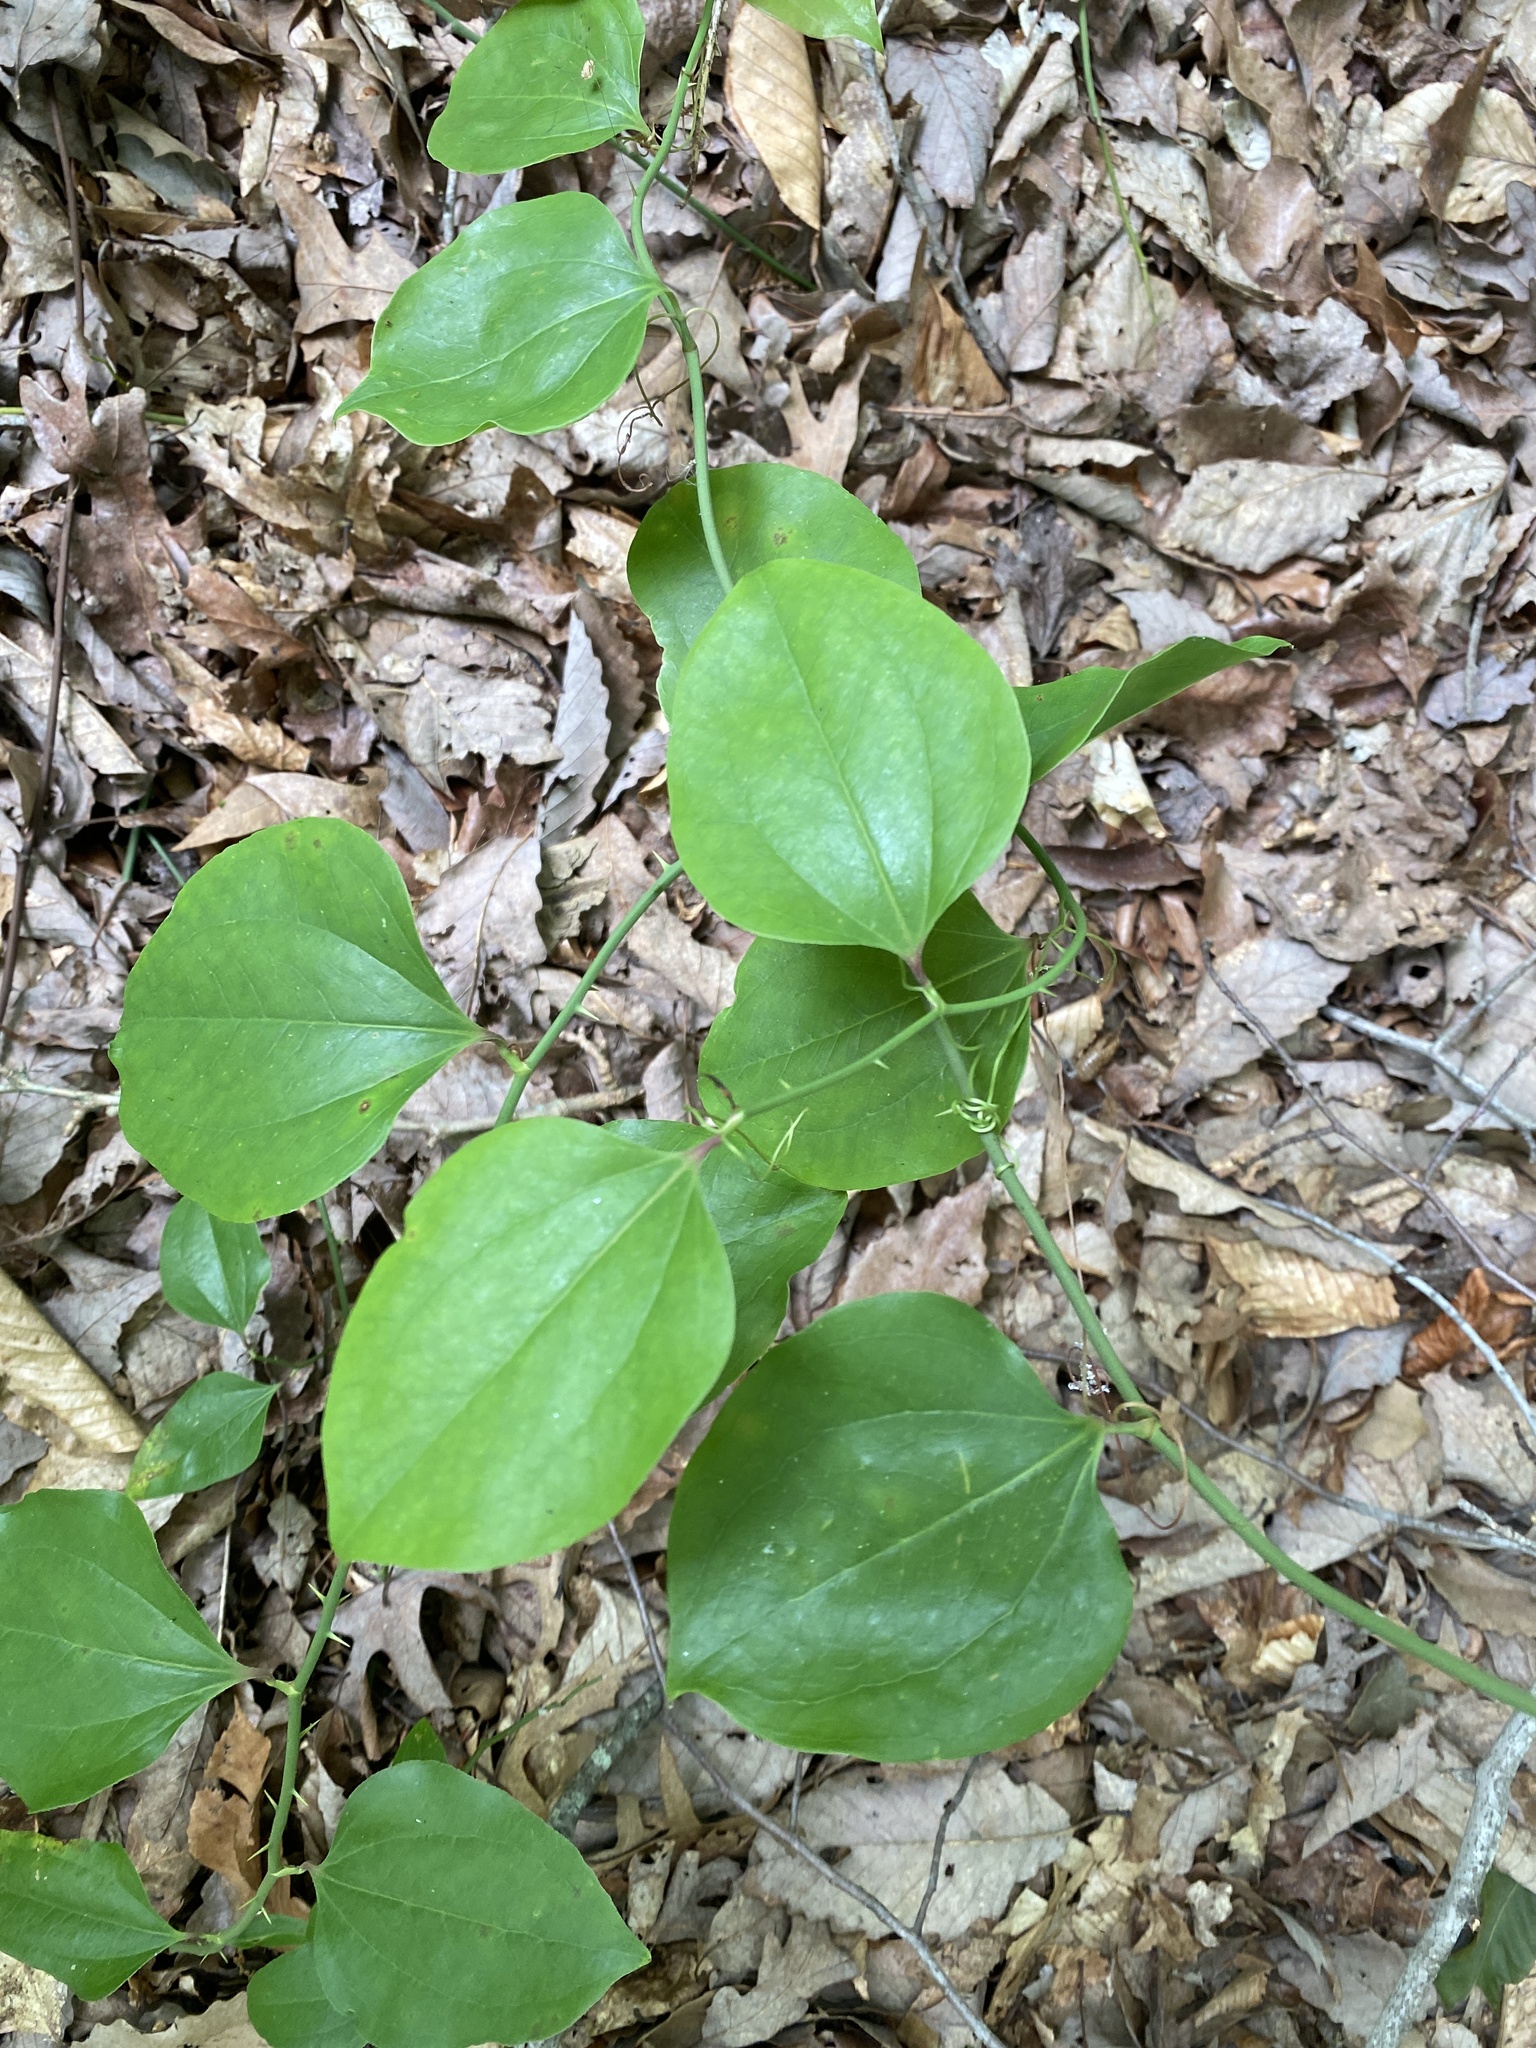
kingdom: Plantae
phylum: Tracheophyta
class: Liliopsida
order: Liliales
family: Smilacaceae
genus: Smilax
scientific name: Smilax rotundifolia
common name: Bullbriar
